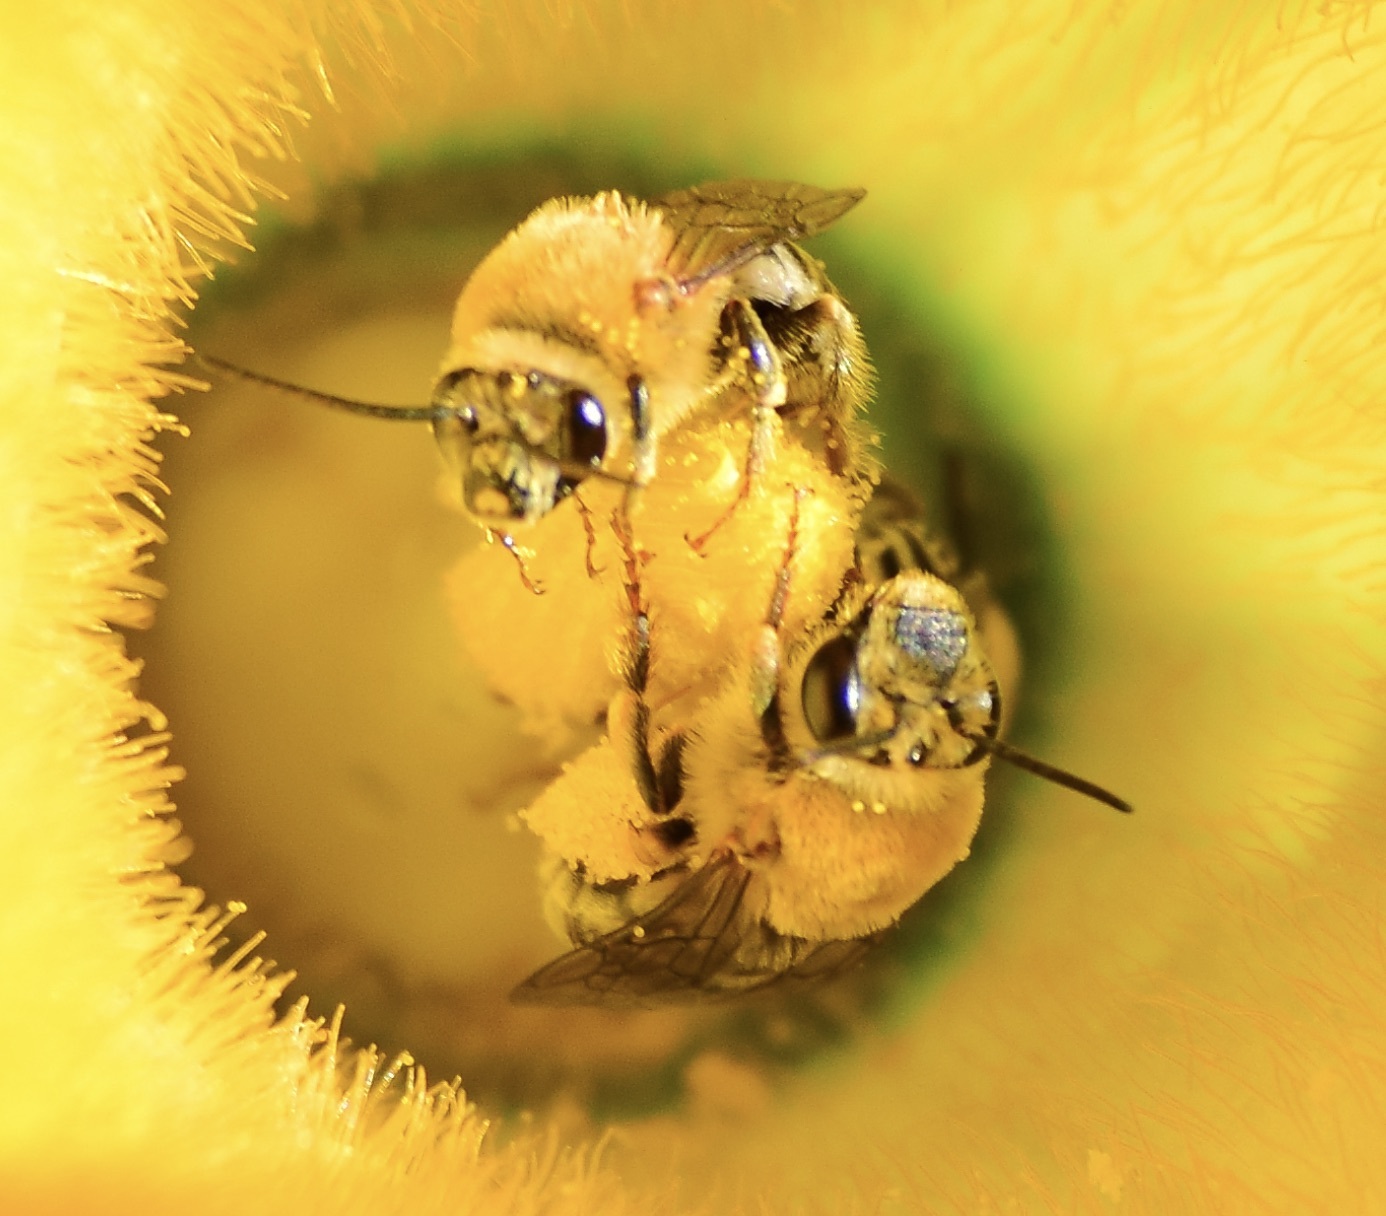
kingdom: Animalia
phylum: Arthropoda
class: Insecta
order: Hymenoptera
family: Apidae
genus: Peponapis
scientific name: Peponapis pruinosa
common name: Pruinose squash bee
